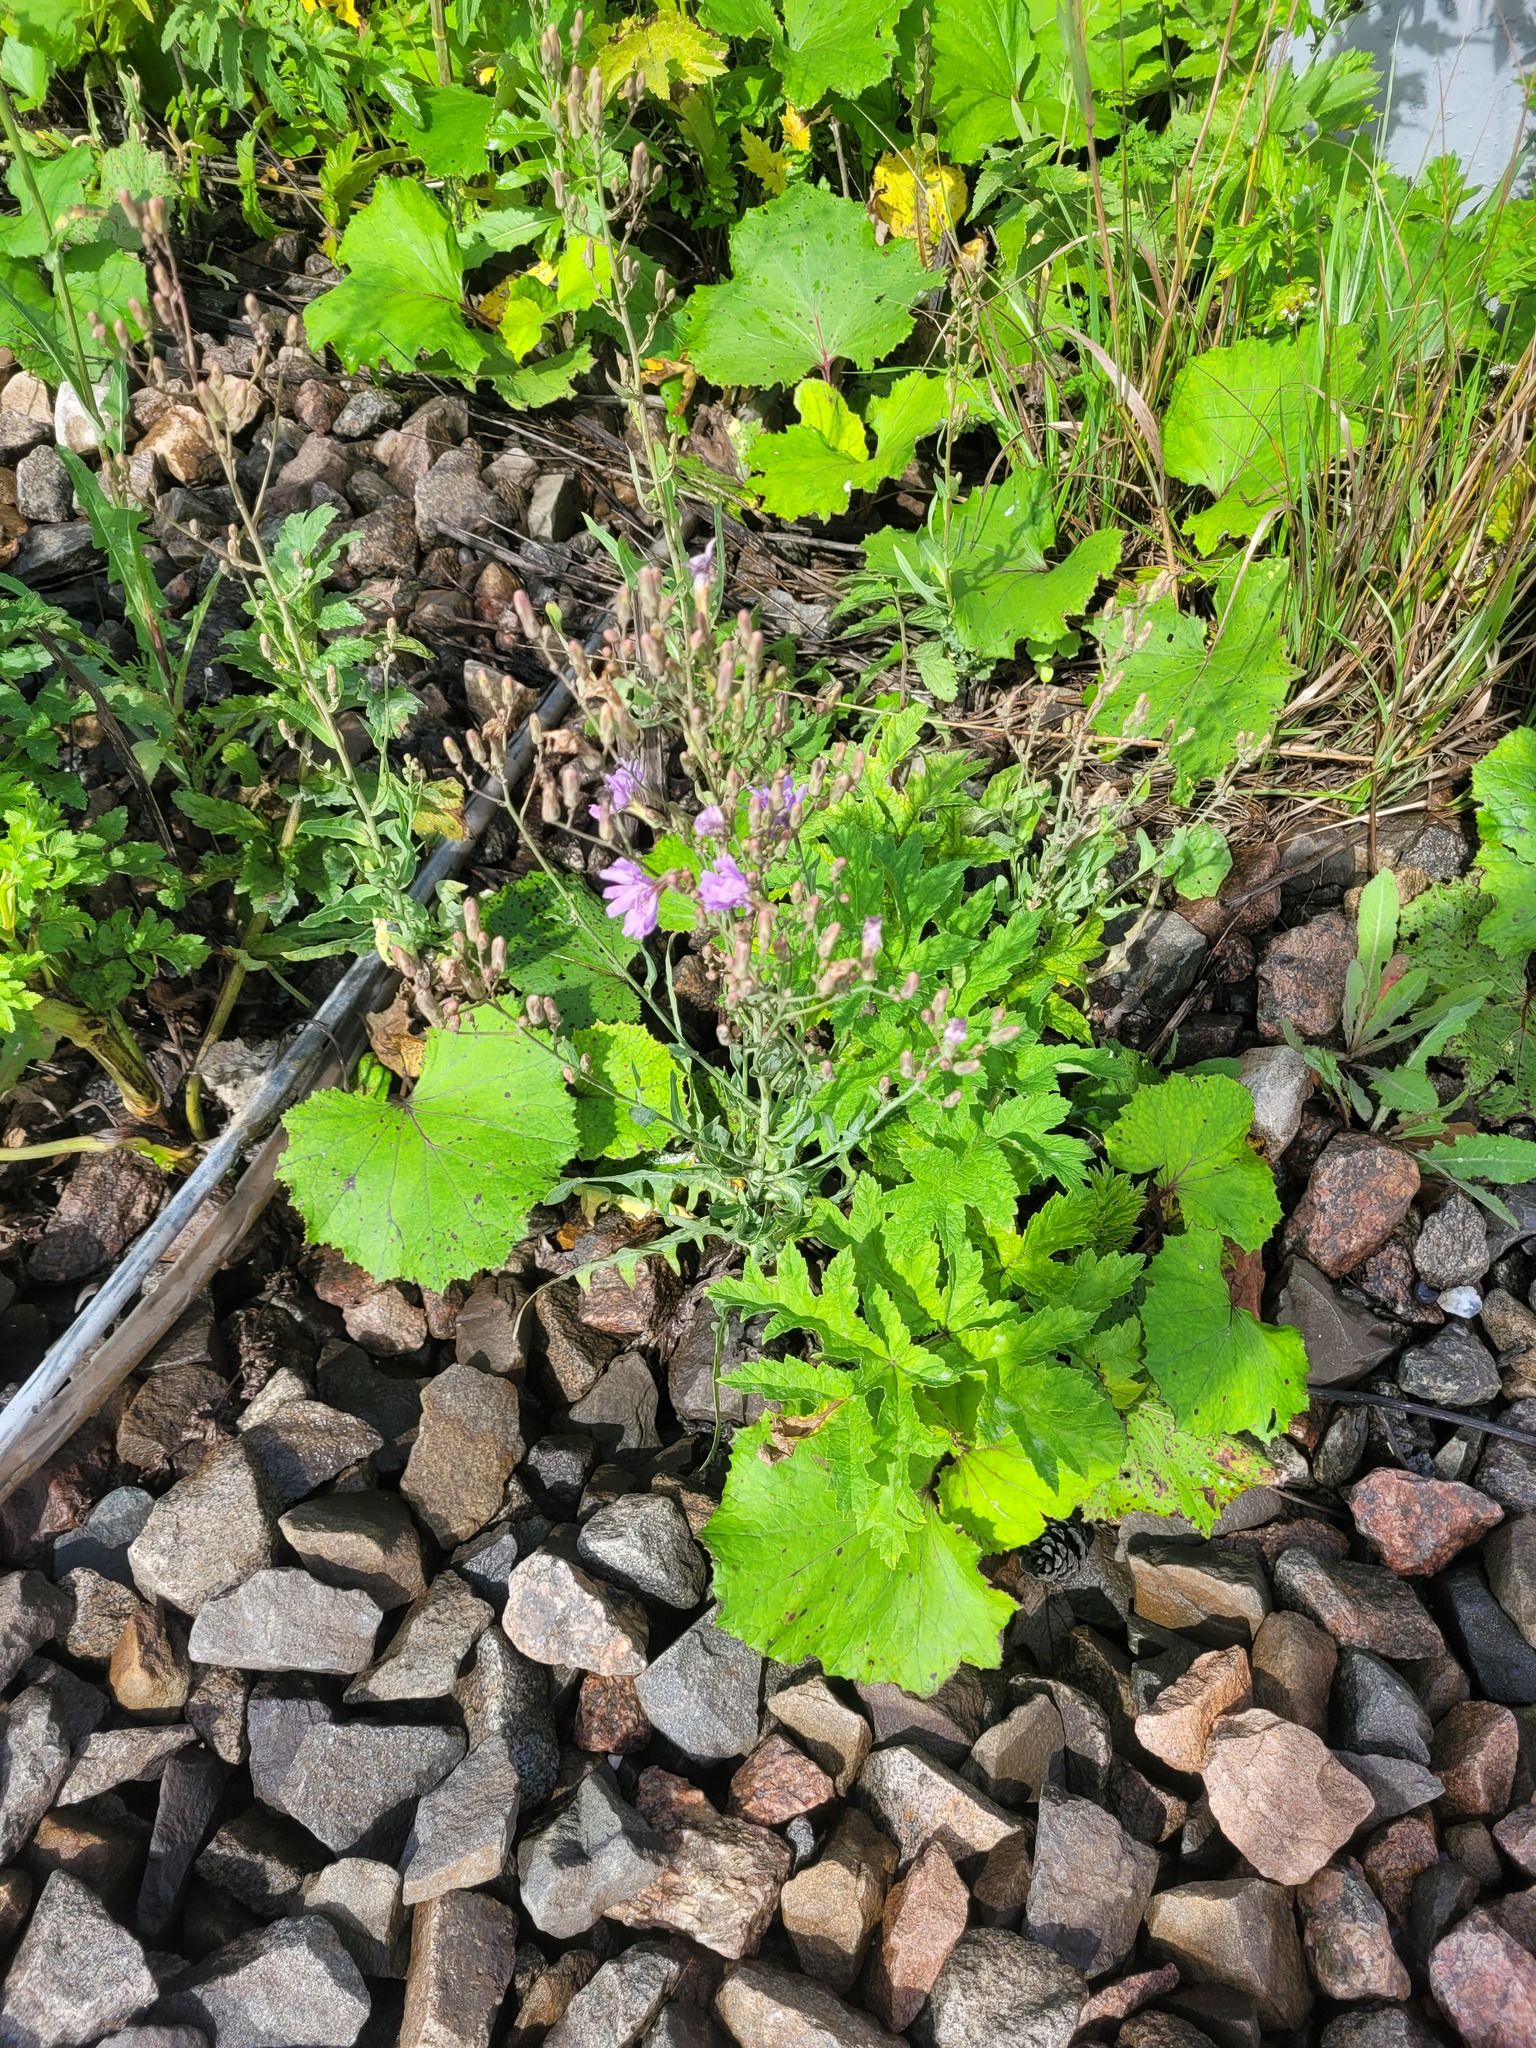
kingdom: Plantae
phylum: Tracheophyta
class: Magnoliopsida
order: Asterales
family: Asteraceae
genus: Lactuca
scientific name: Lactuca tatarica
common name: Blue lettuce
